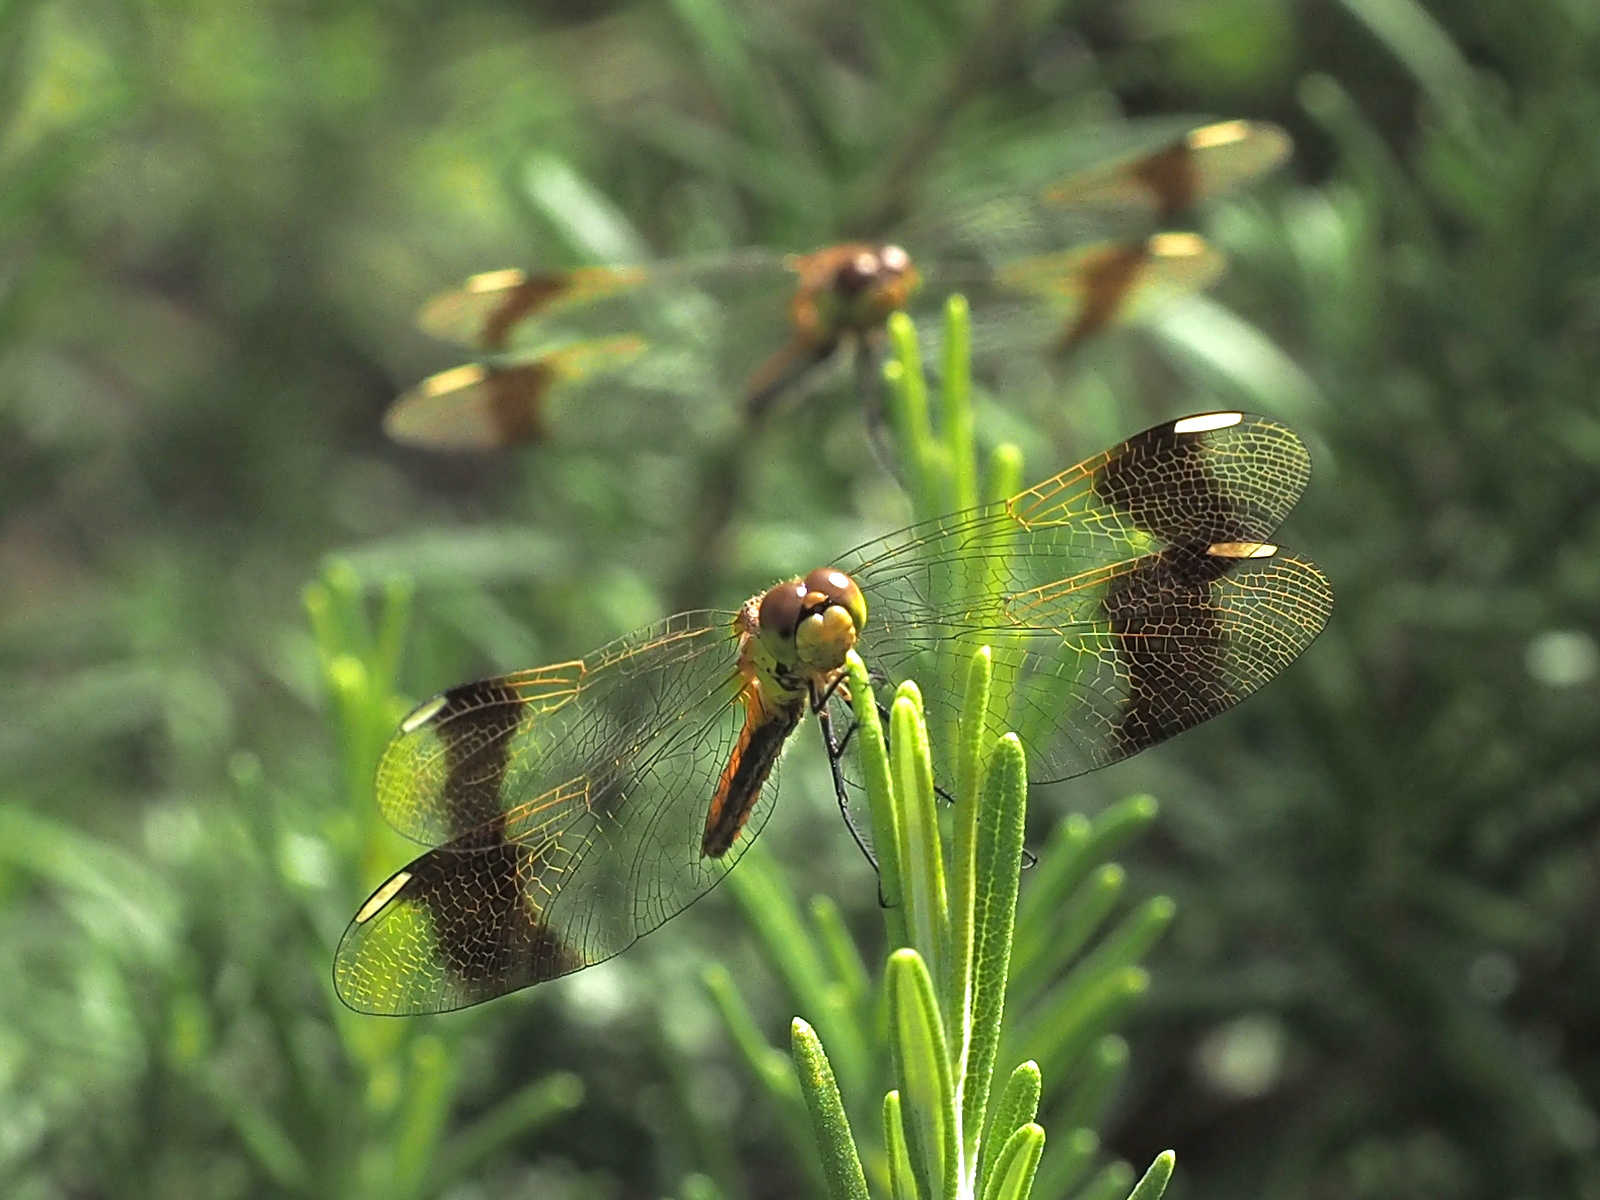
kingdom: Animalia
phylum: Arthropoda
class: Insecta
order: Odonata
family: Libellulidae
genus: Sympetrum
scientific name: Sympetrum pedemontanum
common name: Banded darter
